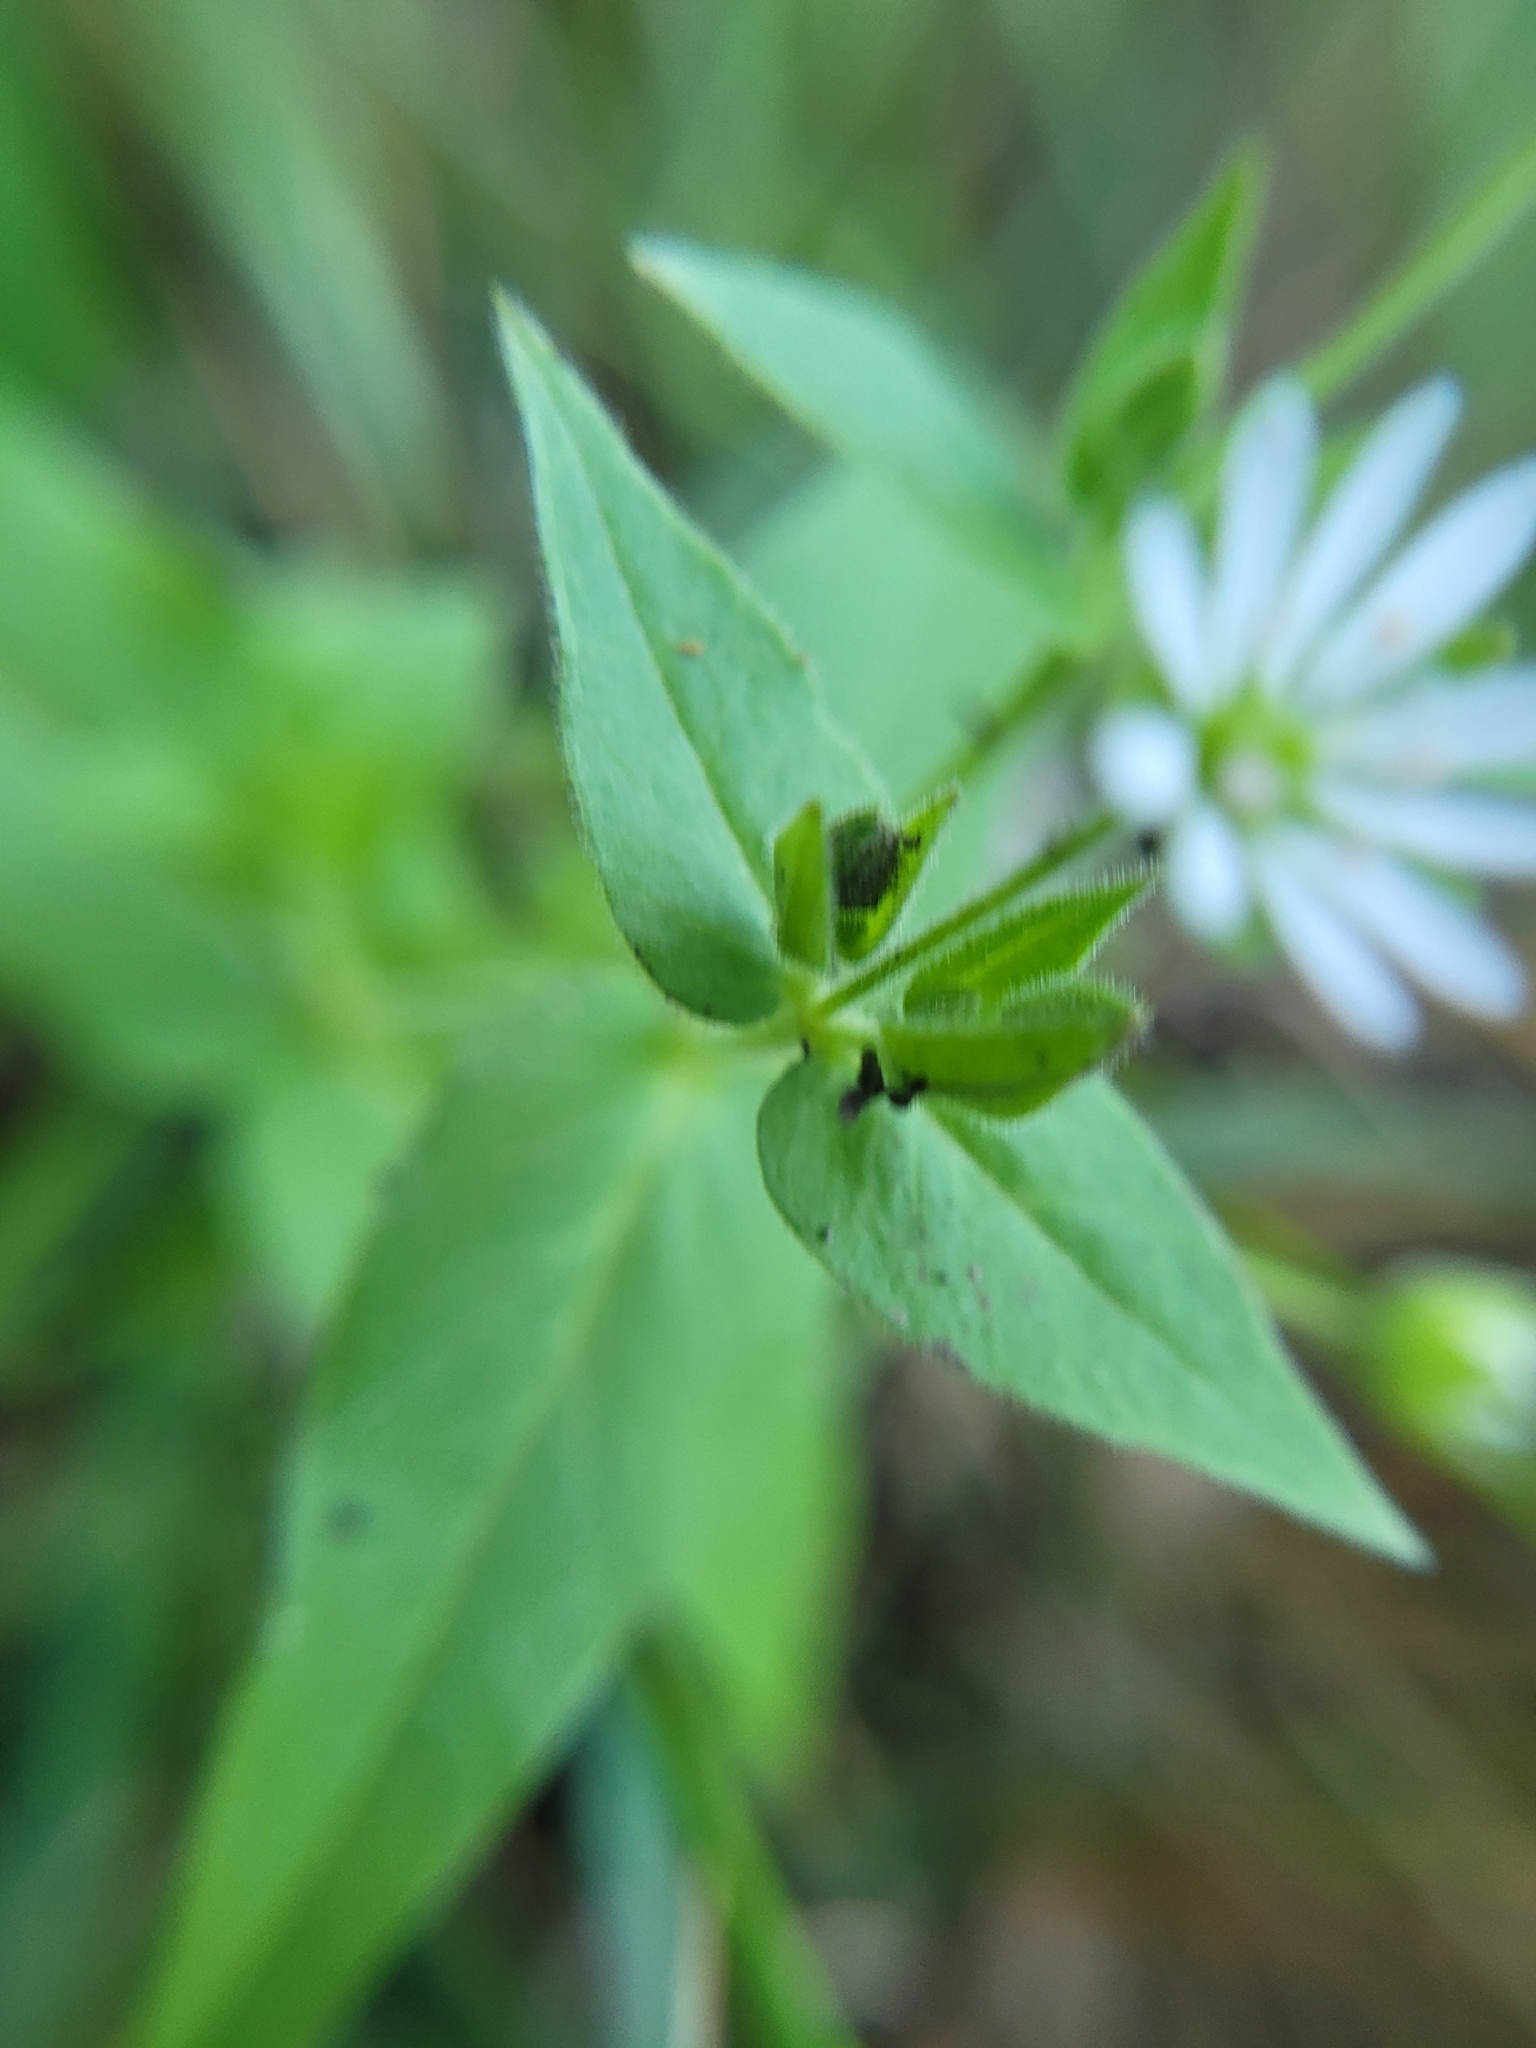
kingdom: Plantae
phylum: Tracheophyta
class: Magnoliopsida
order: Caryophyllales
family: Caryophyllaceae
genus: Stellaria
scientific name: Stellaria aquatica
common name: Water chickweed
